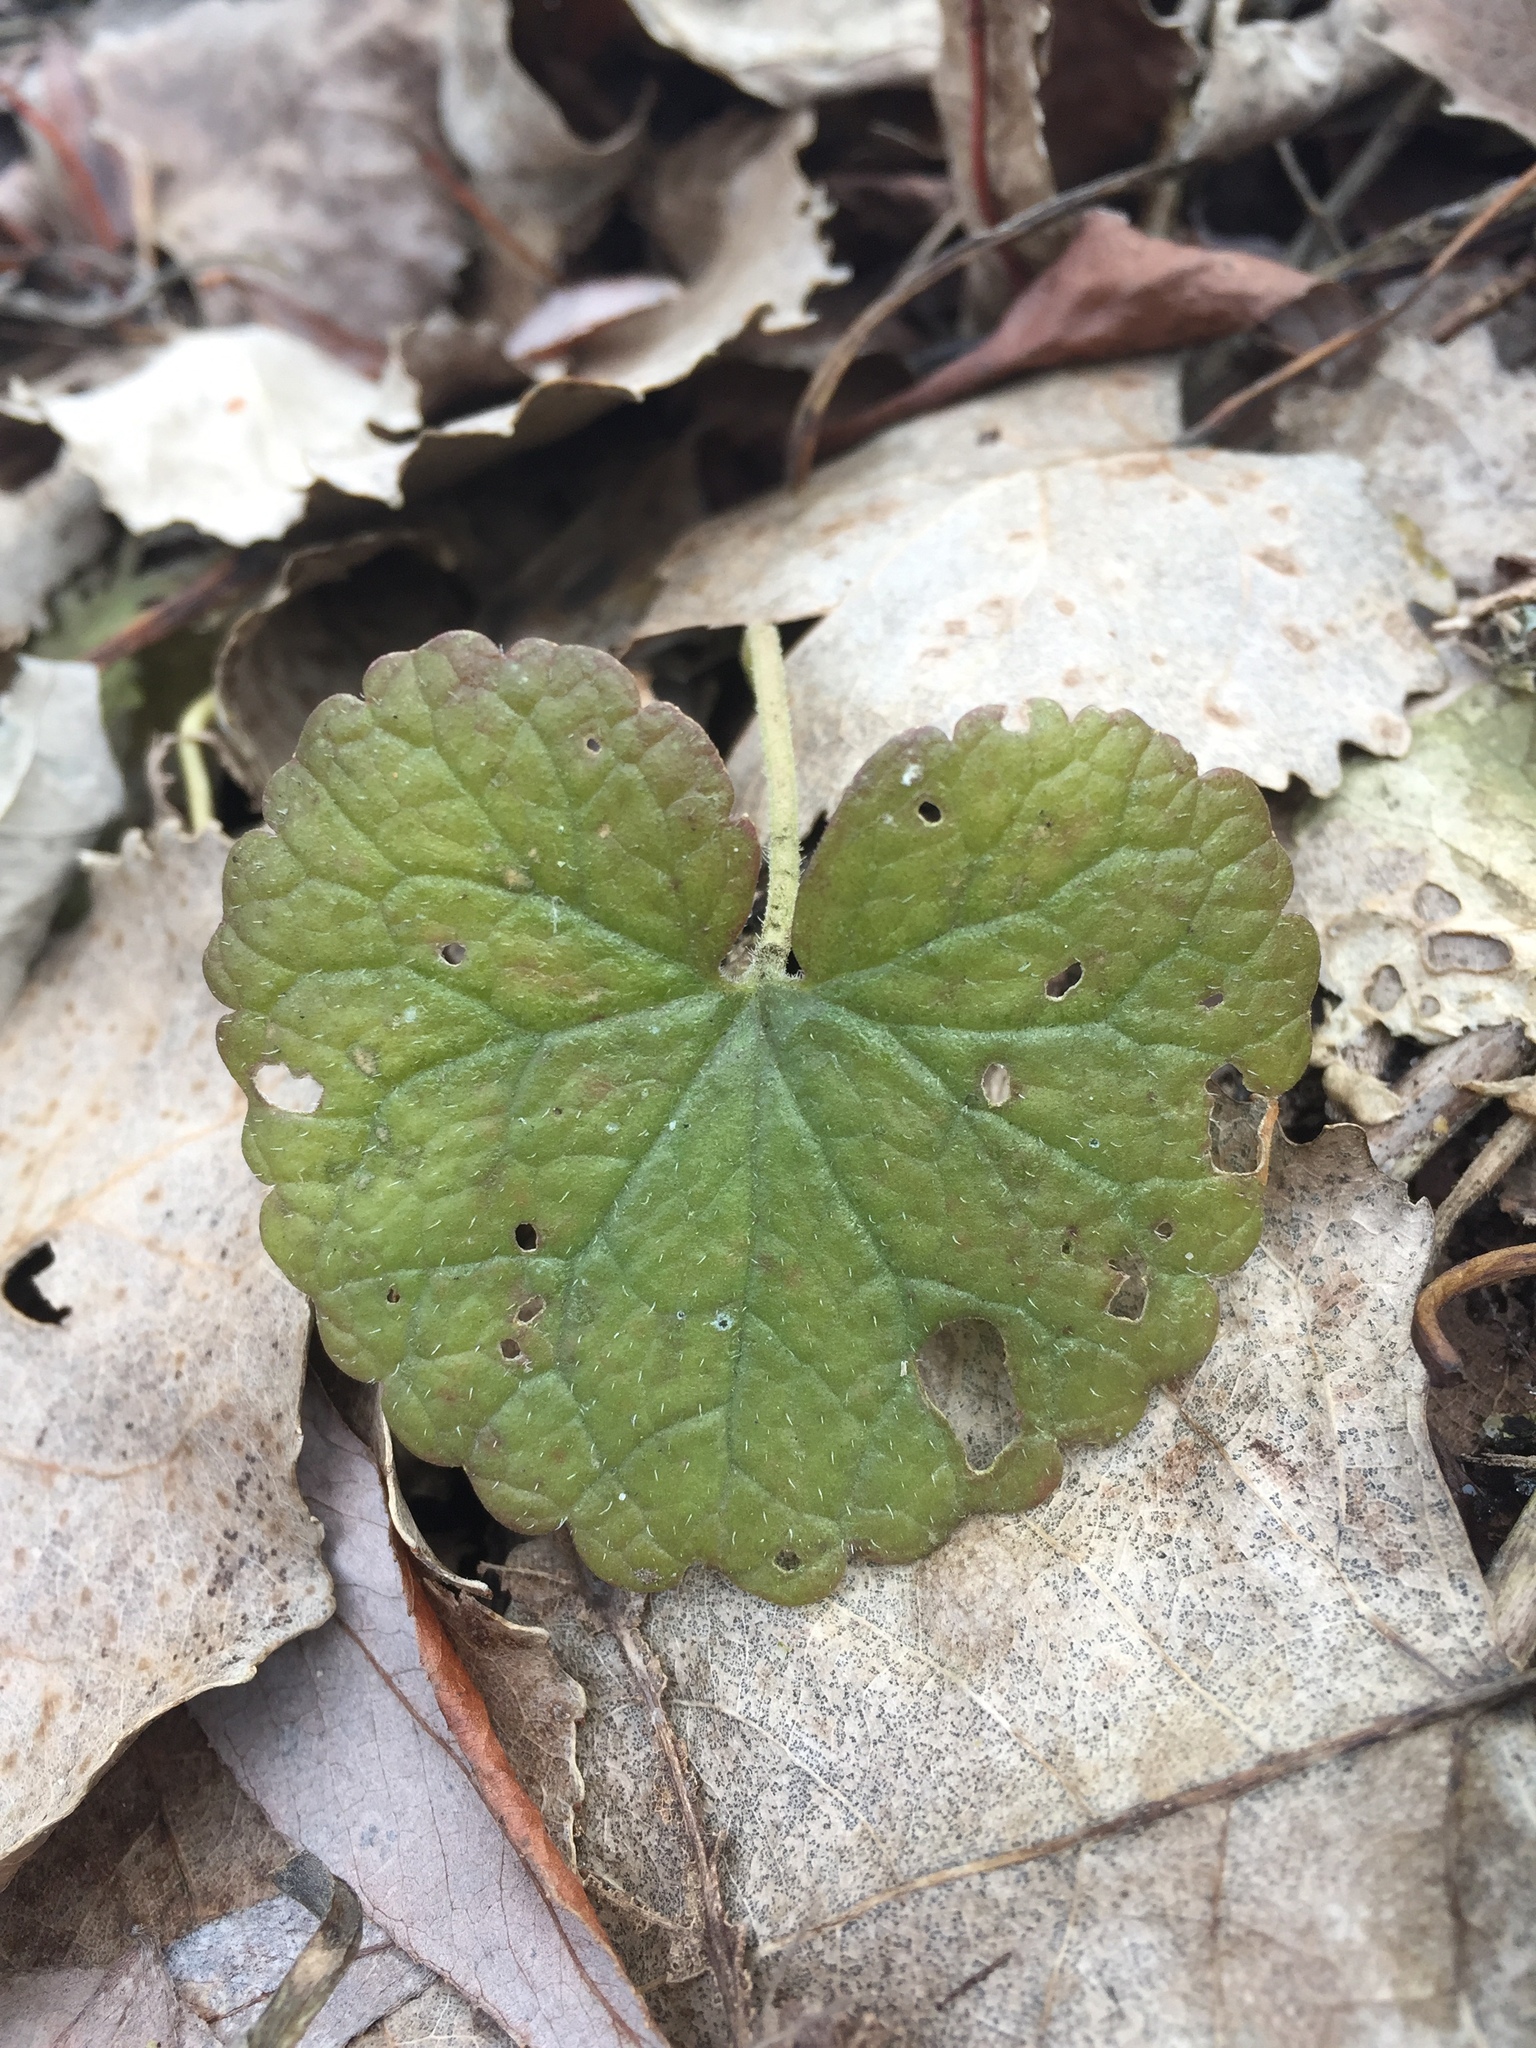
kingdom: Plantae
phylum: Tracheophyta
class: Magnoliopsida
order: Brassicales
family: Brassicaceae
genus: Alliaria
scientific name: Alliaria petiolata
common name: Garlic mustard
